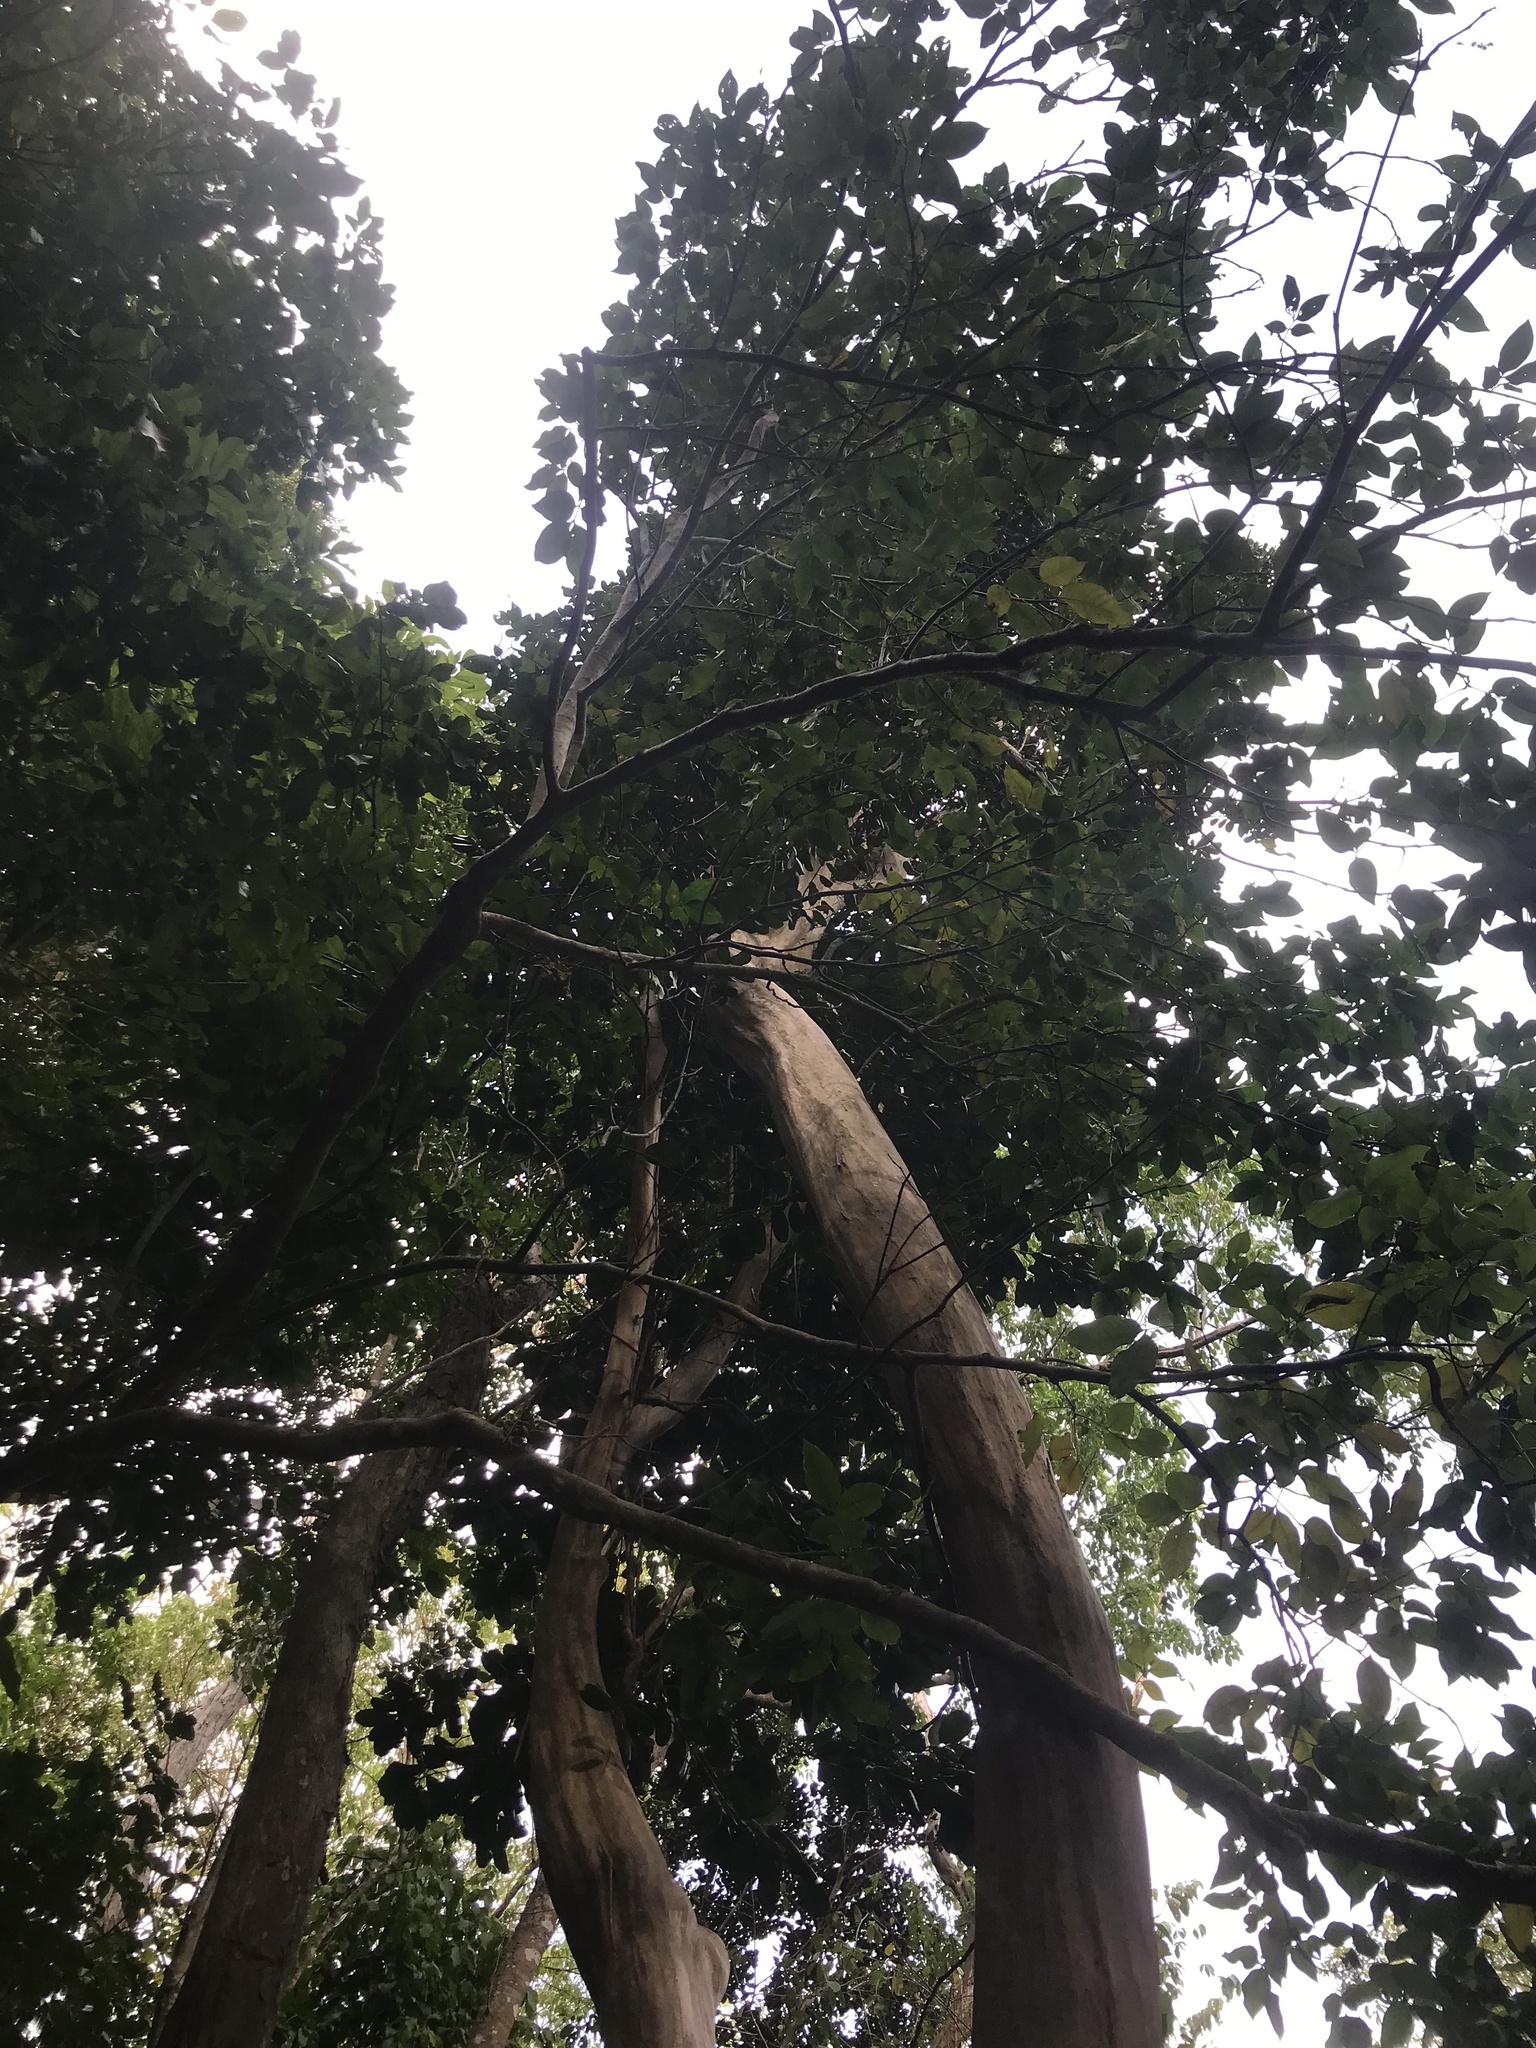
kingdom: Plantae
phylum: Tracheophyta
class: Magnoliopsida
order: Myrtales
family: Myrtaceae
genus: Pimenta
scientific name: Pimenta racemosa
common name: Bay rum tree
